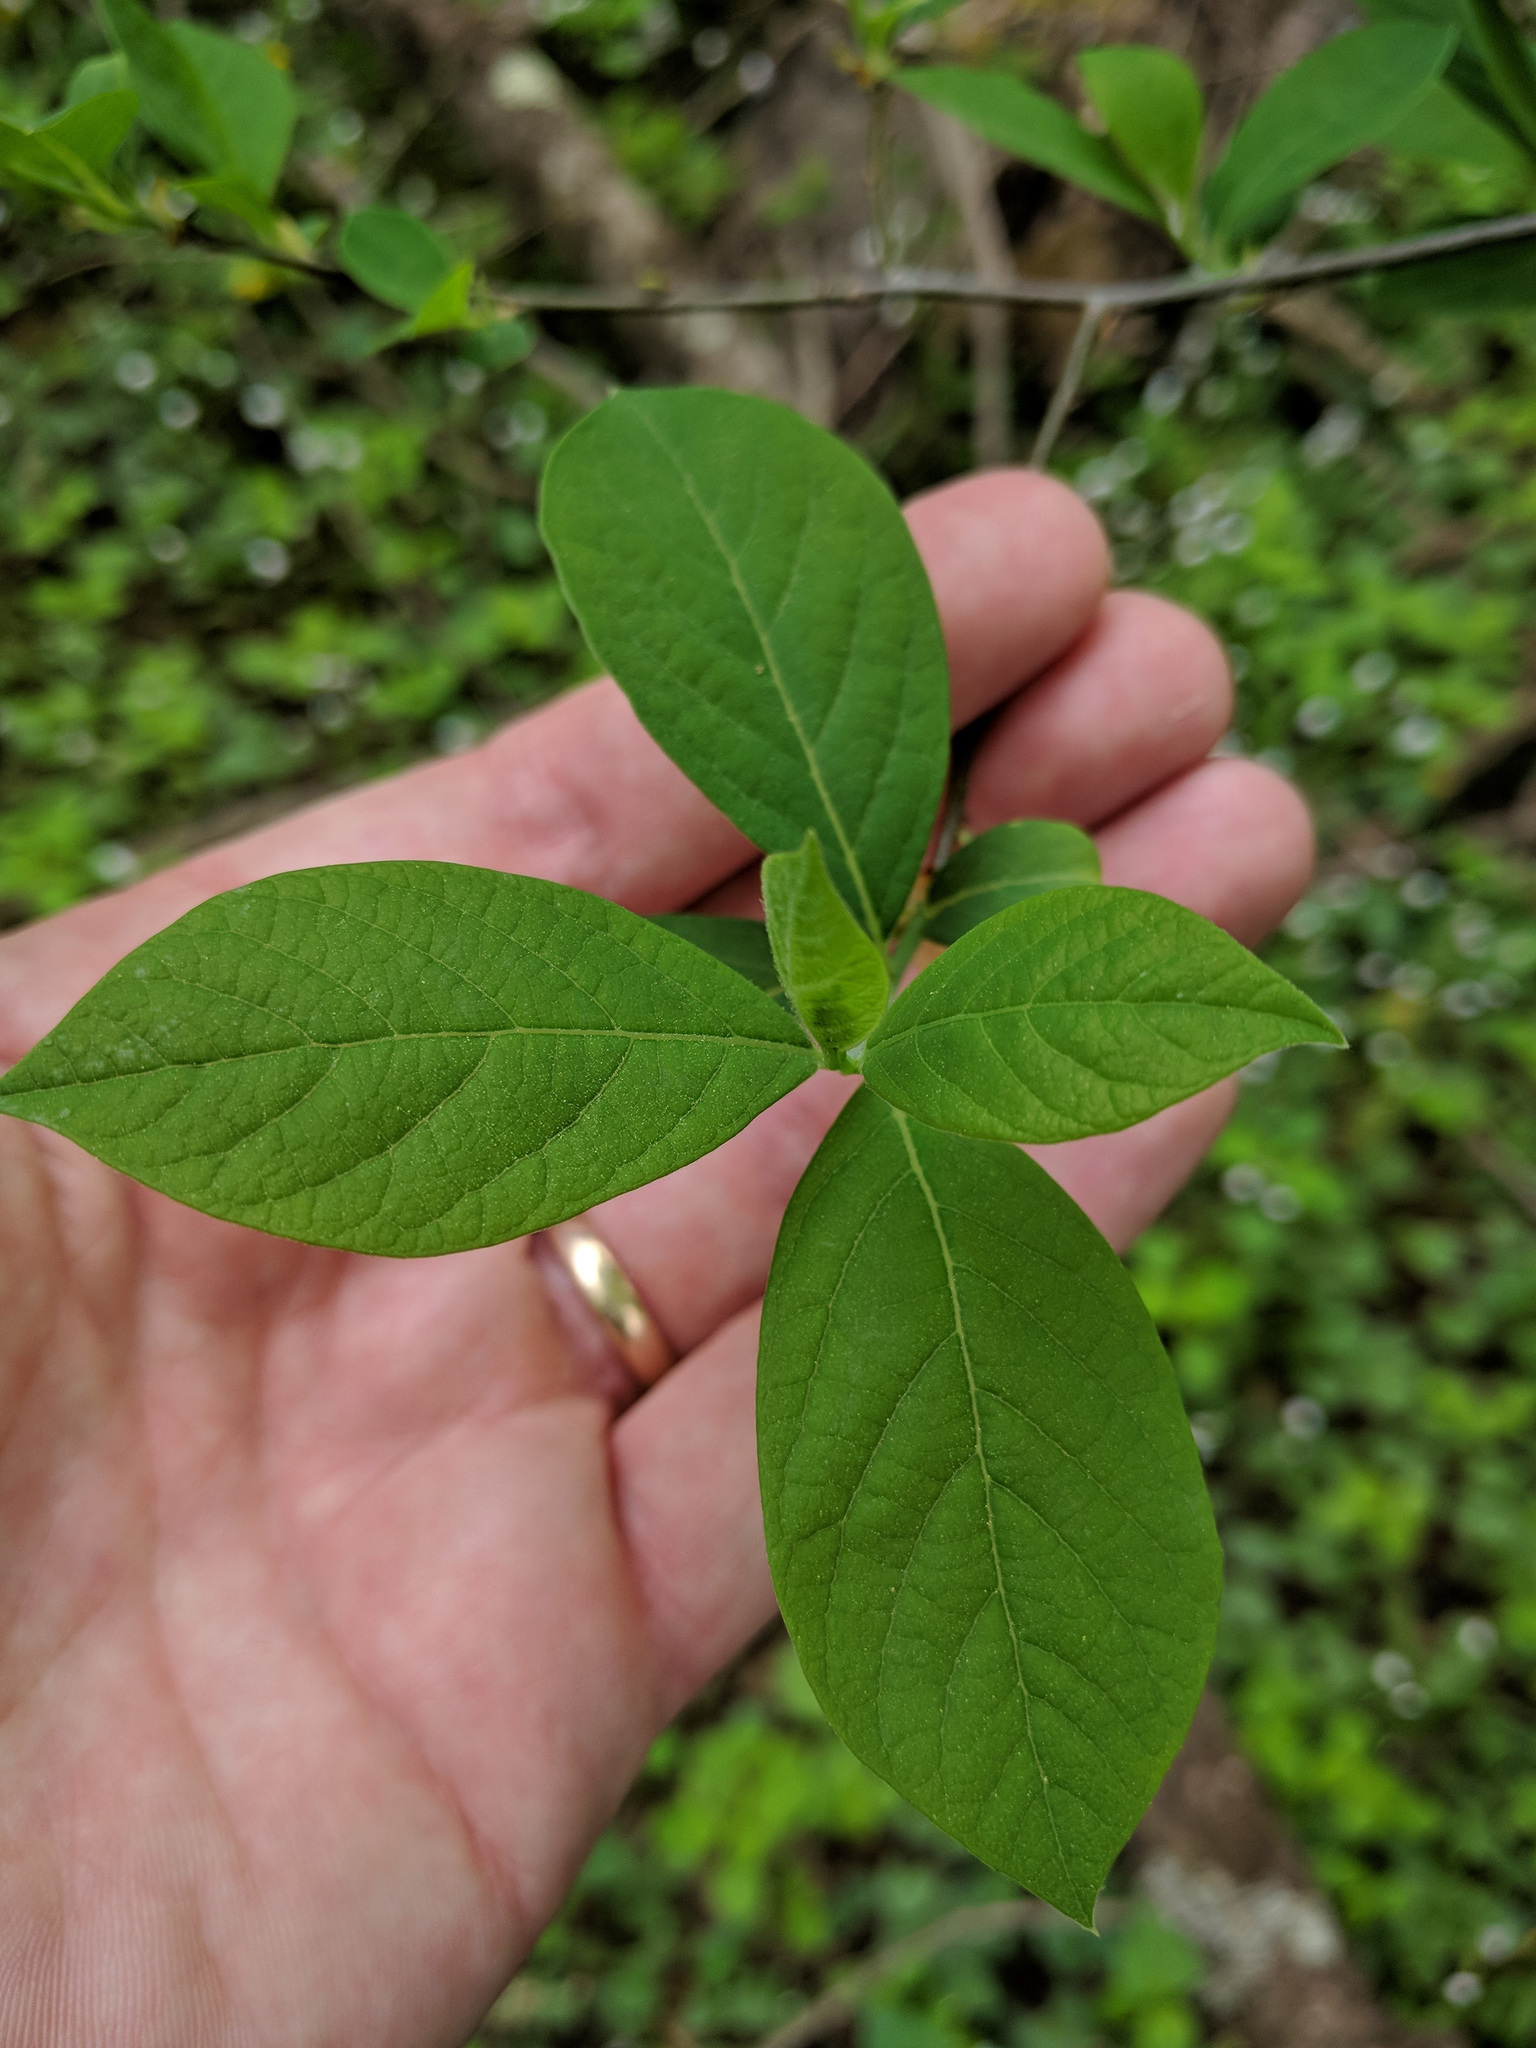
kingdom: Plantae
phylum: Tracheophyta
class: Magnoliopsida
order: Laurales
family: Lauraceae
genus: Lindera
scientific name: Lindera benzoin
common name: Spicebush
